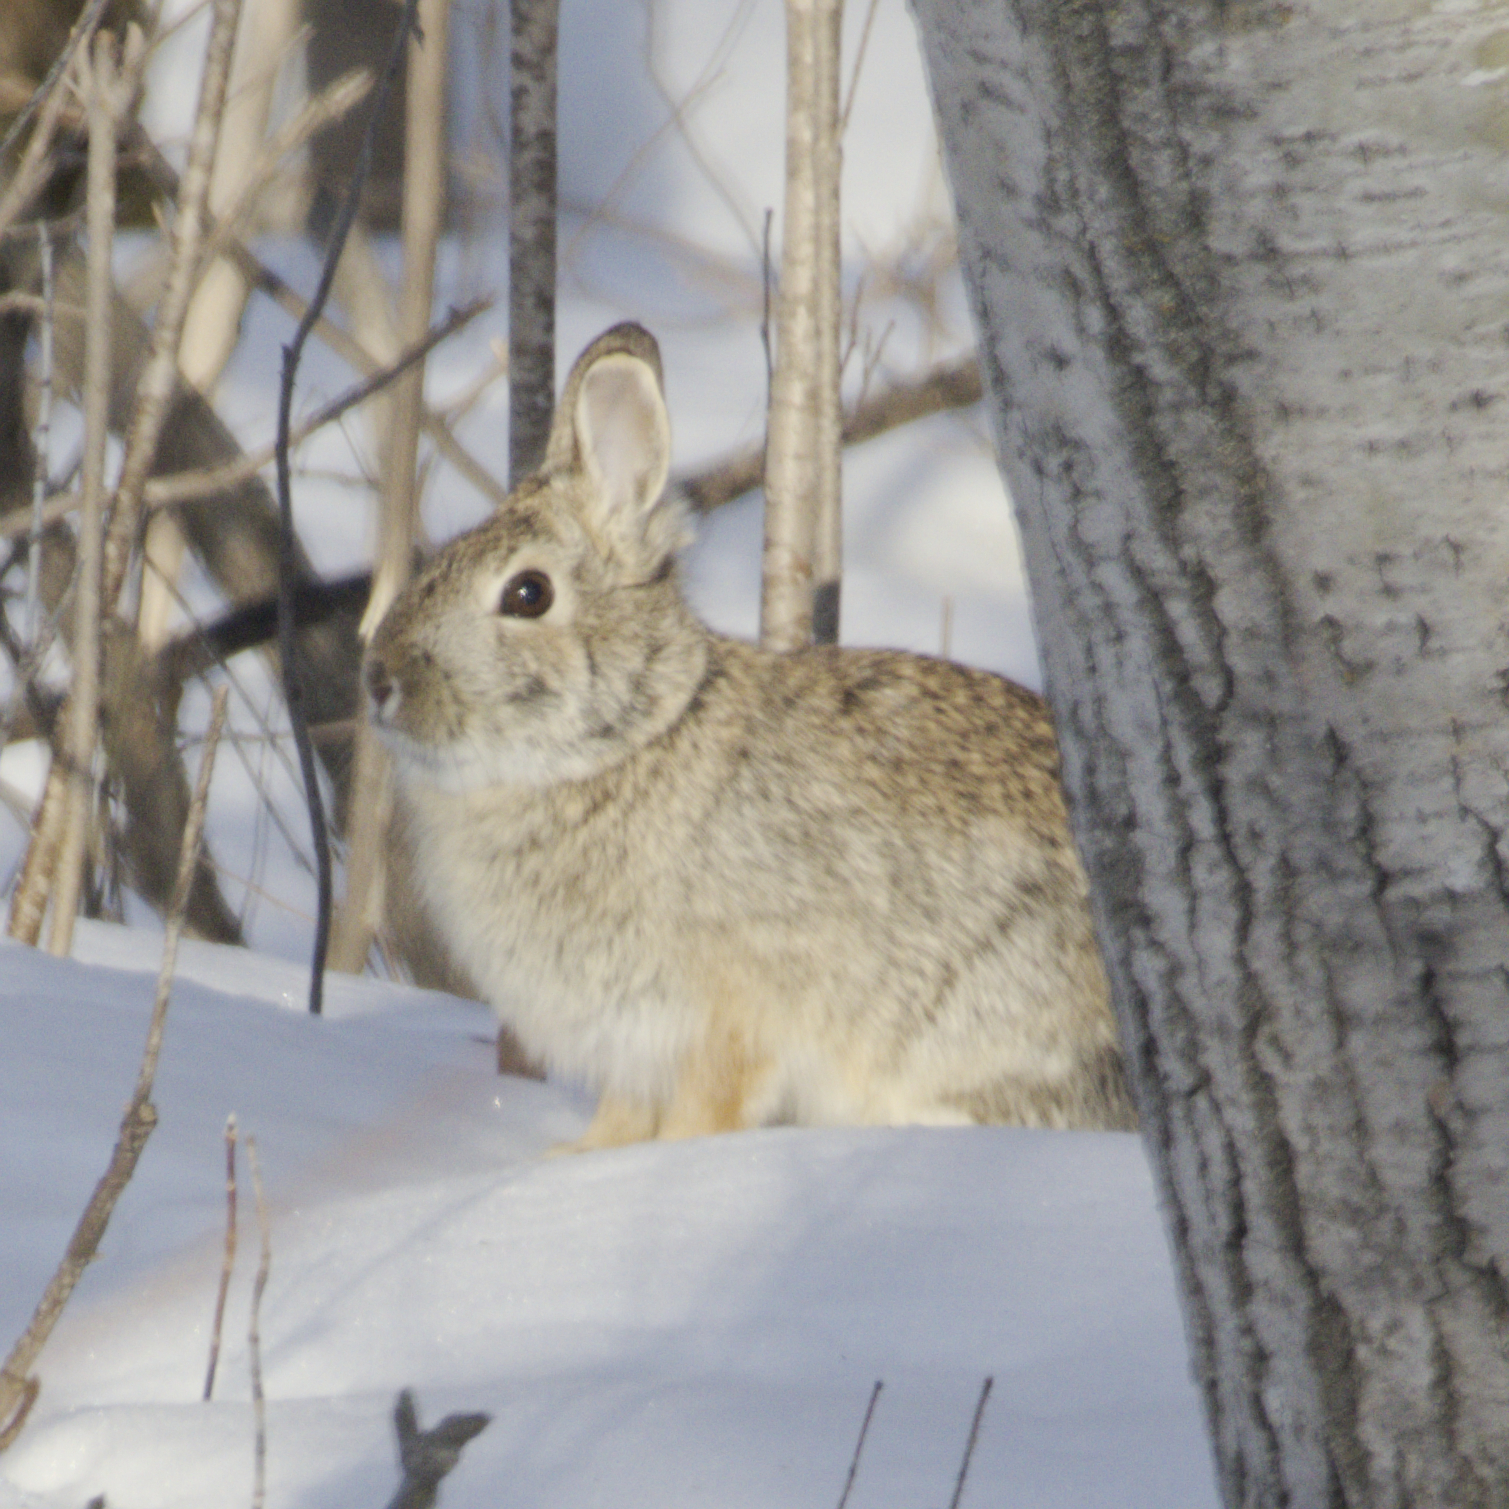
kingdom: Animalia
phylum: Chordata
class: Mammalia
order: Lagomorpha
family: Leporidae
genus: Sylvilagus
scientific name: Sylvilagus floridanus
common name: Eastern cottontail
